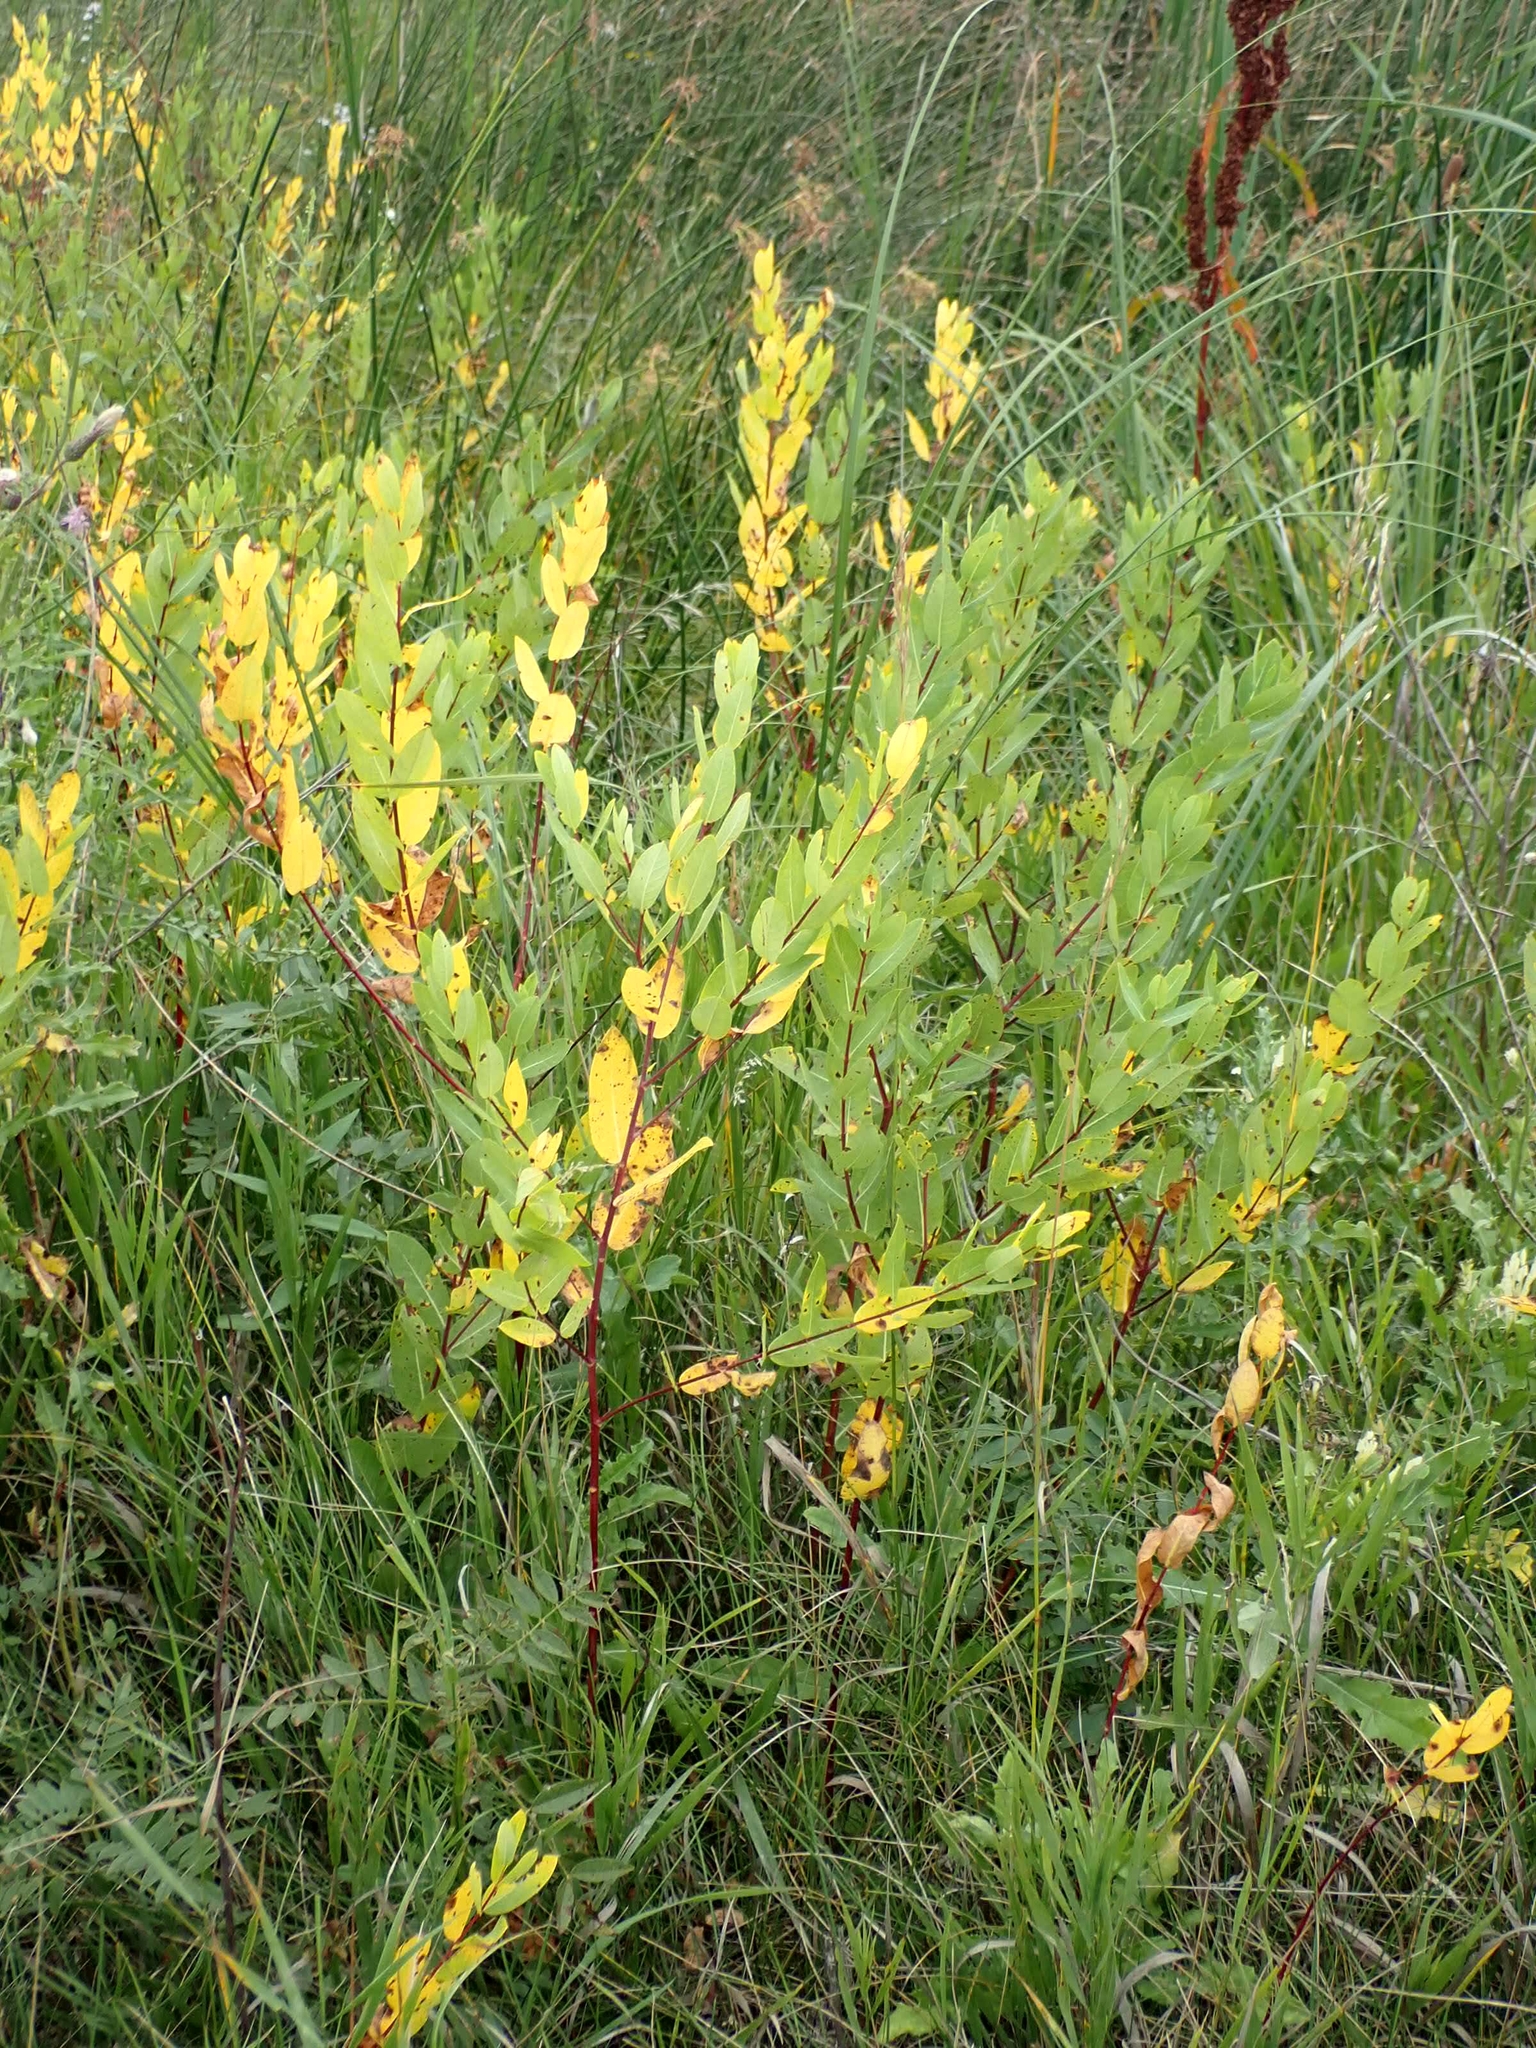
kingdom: Plantae
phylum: Tracheophyta
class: Magnoliopsida
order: Gentianales
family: Apocynaceae
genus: Apocynum
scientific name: Apocynum cannabinum
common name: Hemp dogbane
